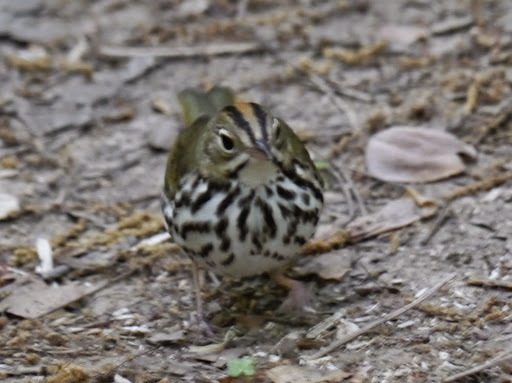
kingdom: Animalia
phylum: Chordata
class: Aves
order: Passeriformes
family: Parulidae
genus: Seiurus
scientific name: Seiurus aurocapilla
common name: Ovenbird
